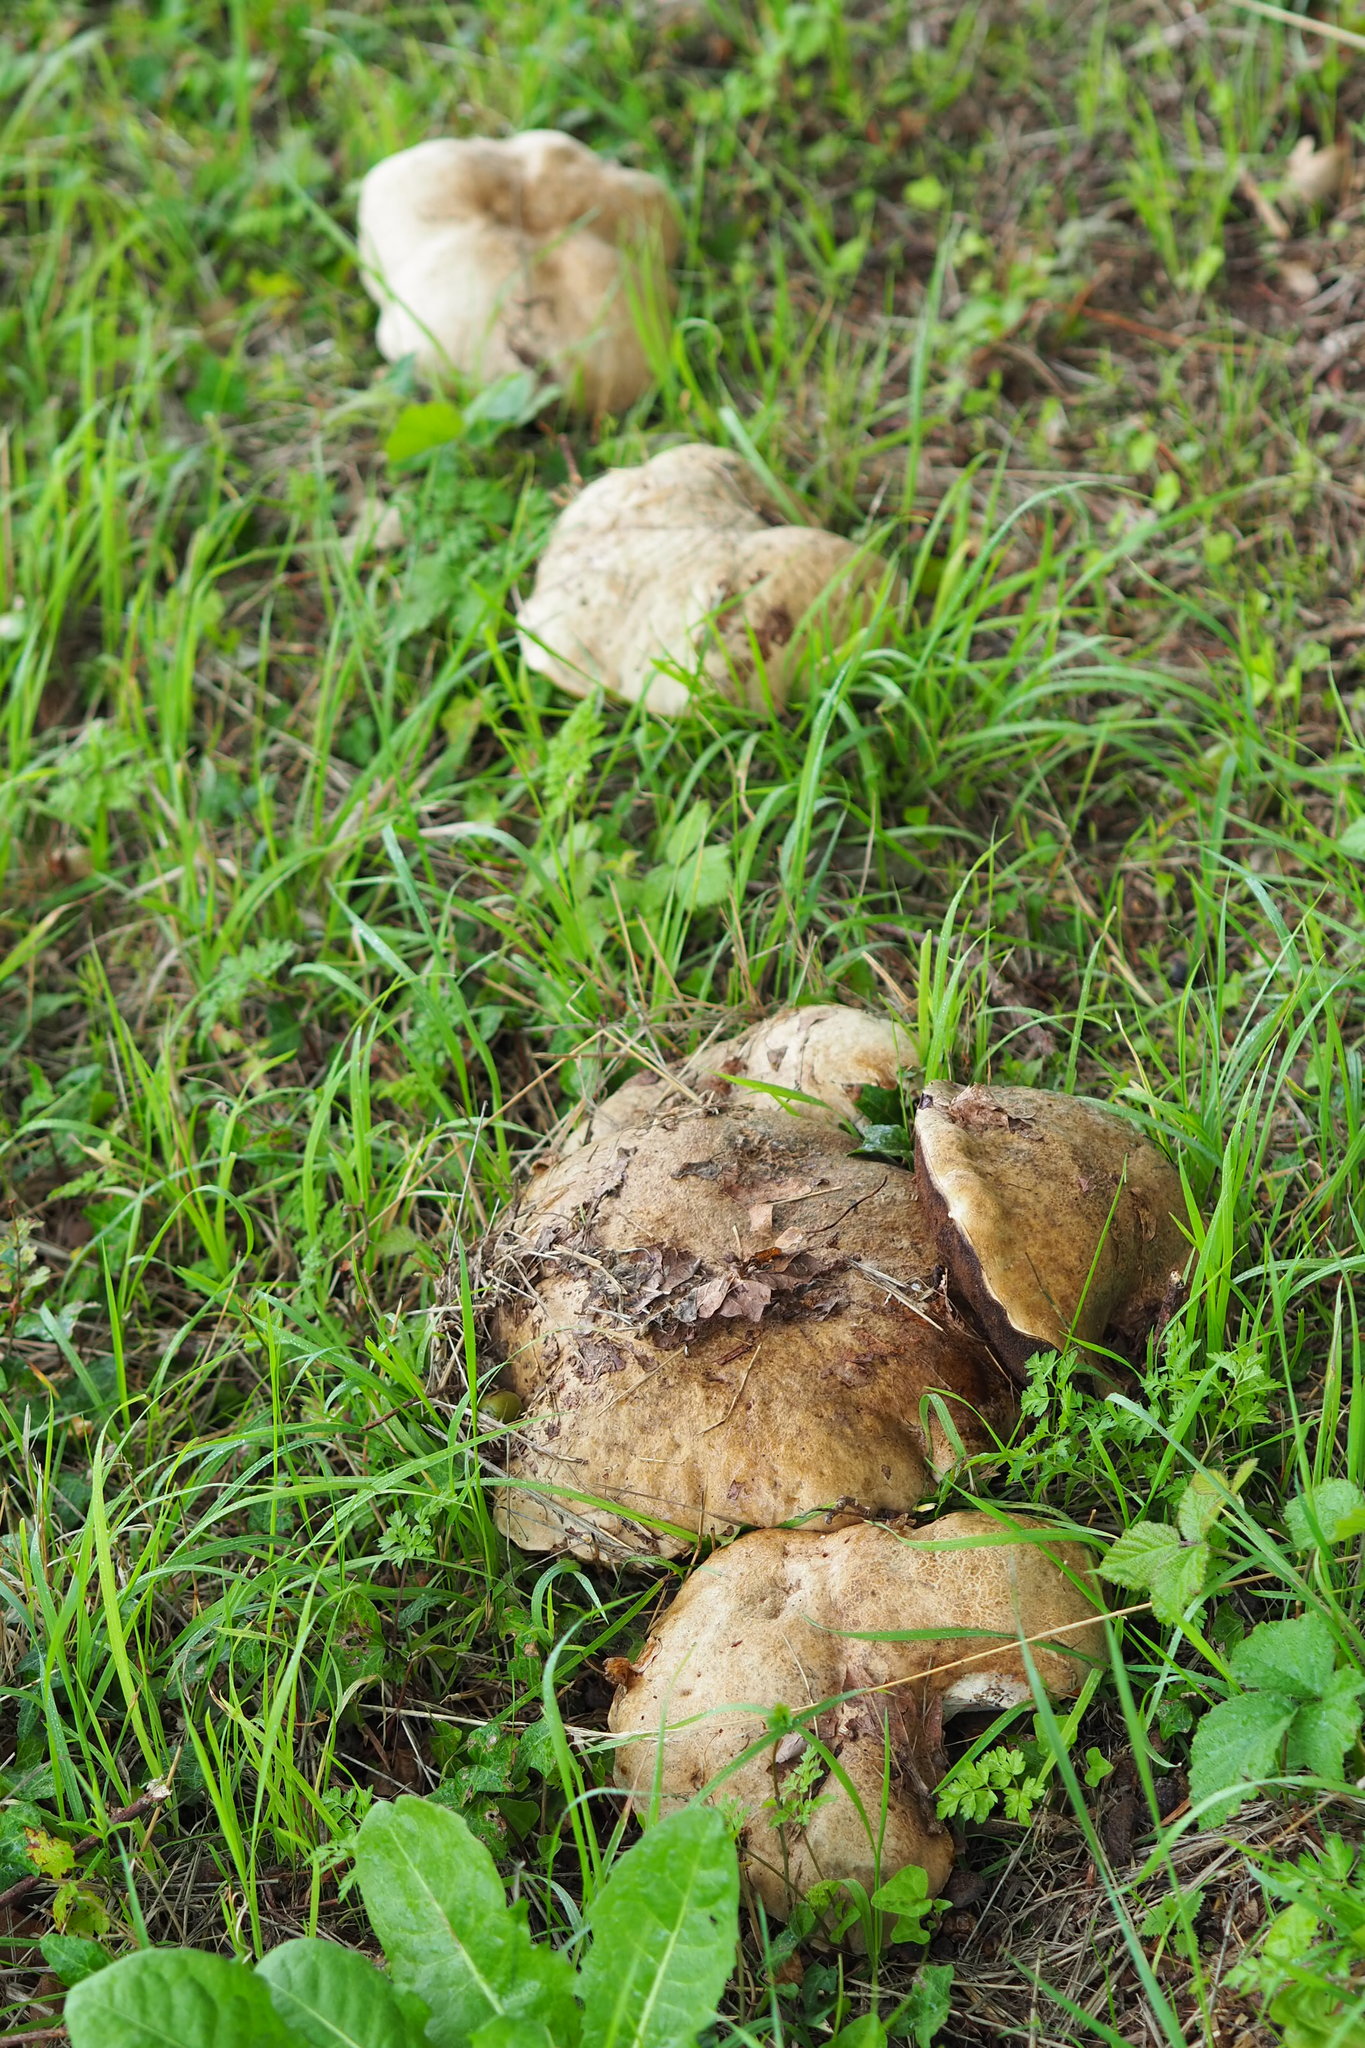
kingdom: Fungi
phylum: Basidiomycota
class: Agaricomycetes
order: Boletales
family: Boletaceae
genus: Caloboletus
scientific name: Caloboletus radicans
